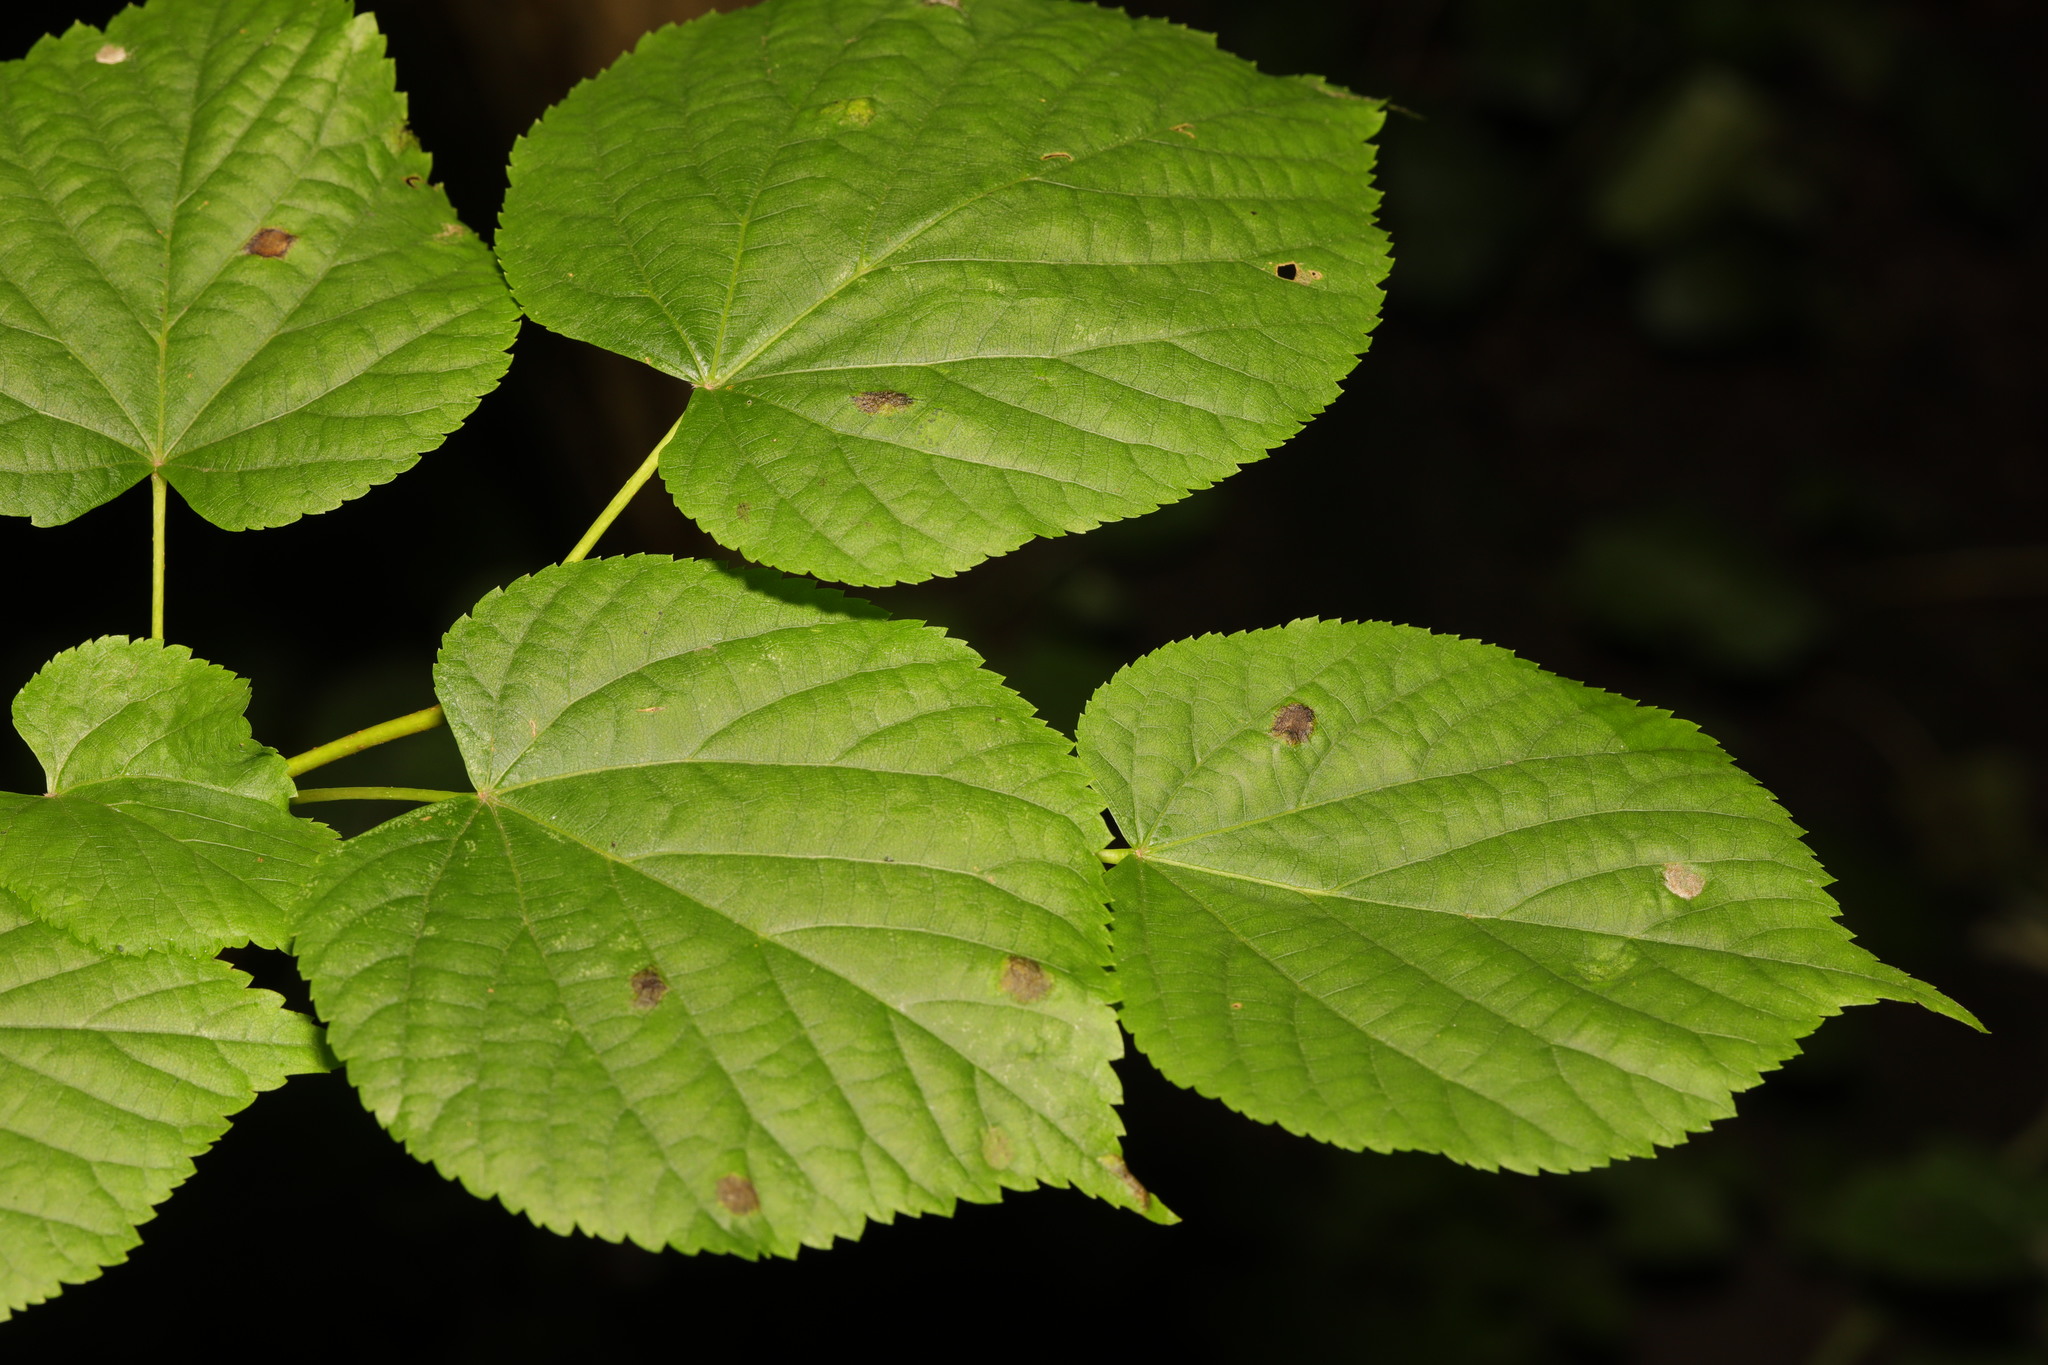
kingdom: Plantae
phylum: Tracheophyta
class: Magnoliopsida
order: Malvales
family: Malvaceae
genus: Tilia
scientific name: Tilia europaea
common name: European linden
